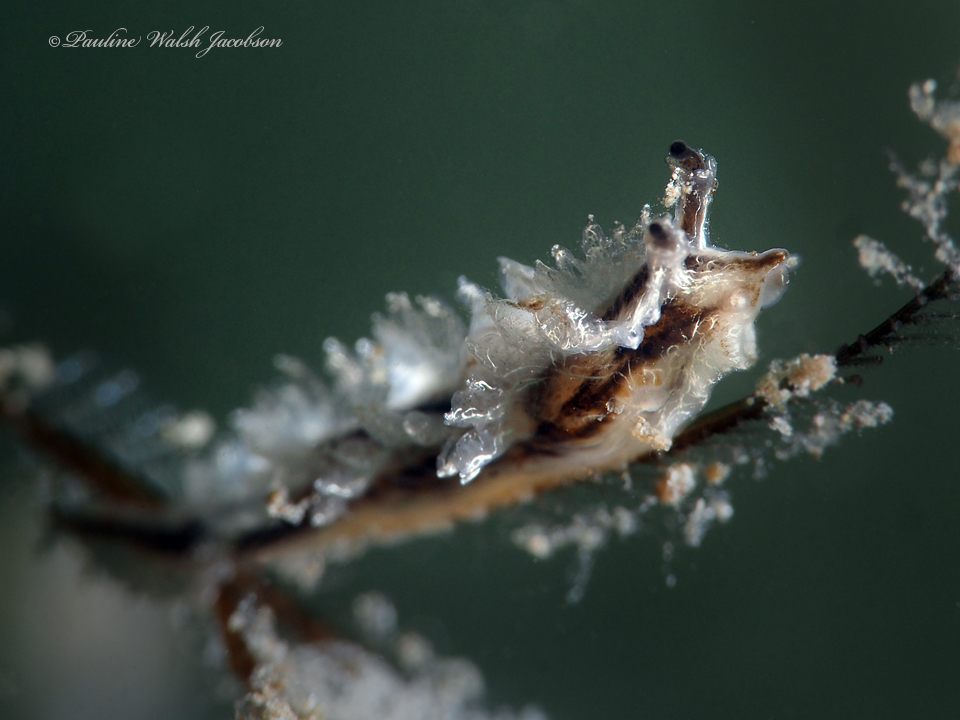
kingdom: Animalia
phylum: Mollusca
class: Gastropoda
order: Nudibranchia
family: Lomanotidae
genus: Lomanotus
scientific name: Lomanotus vermiformis
